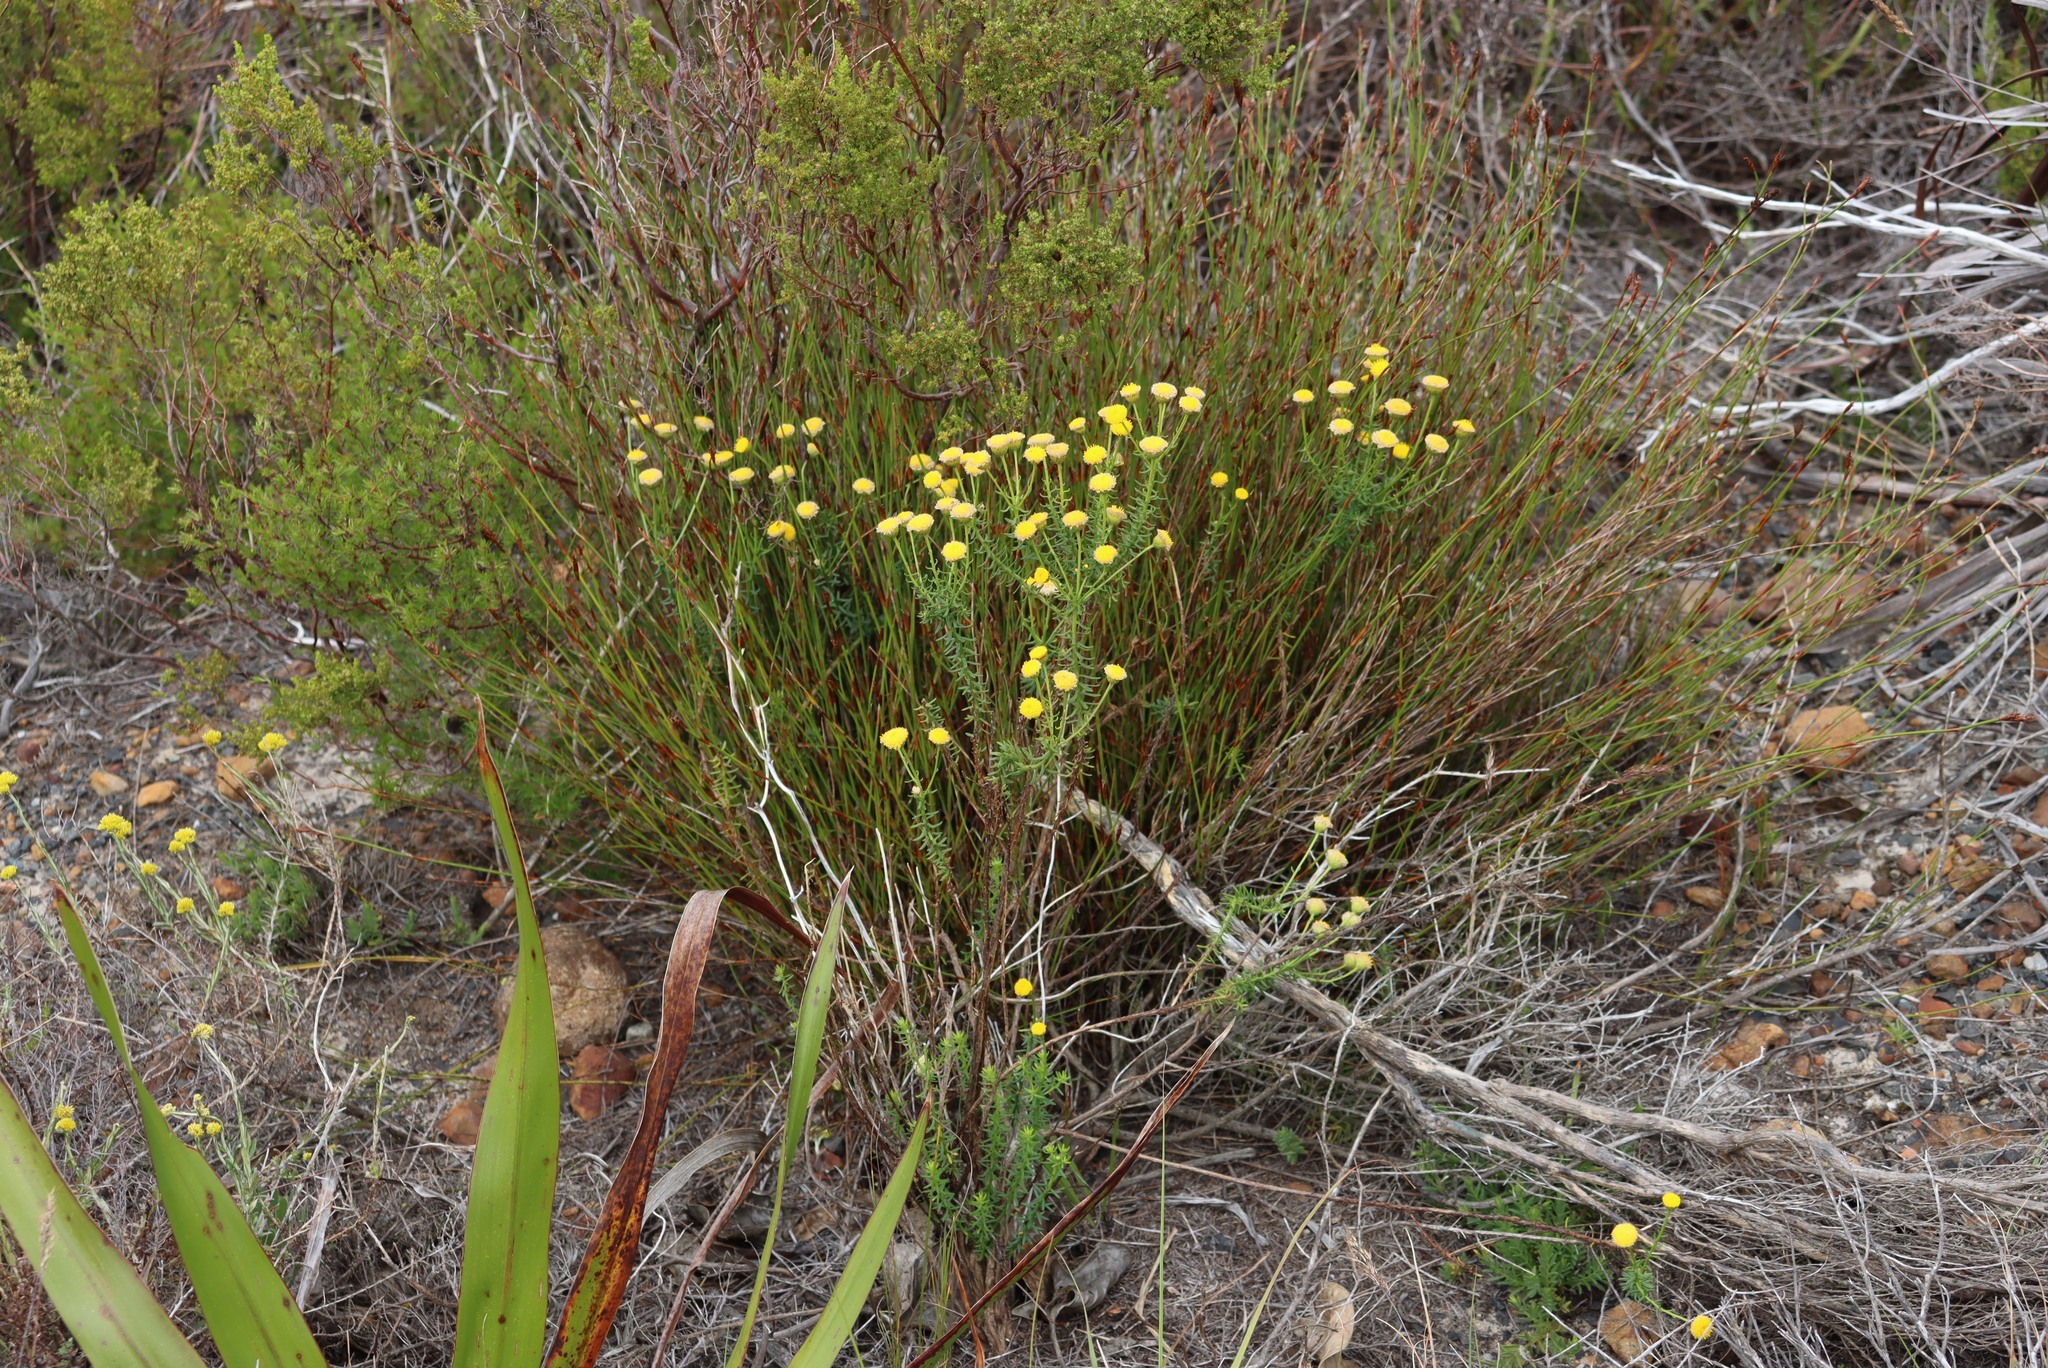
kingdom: Plantae
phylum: Tracheophyta
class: Magnoliopsida
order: Asterales
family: Asteraceae
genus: Chrysocoma
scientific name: Chrysocoma cernua
